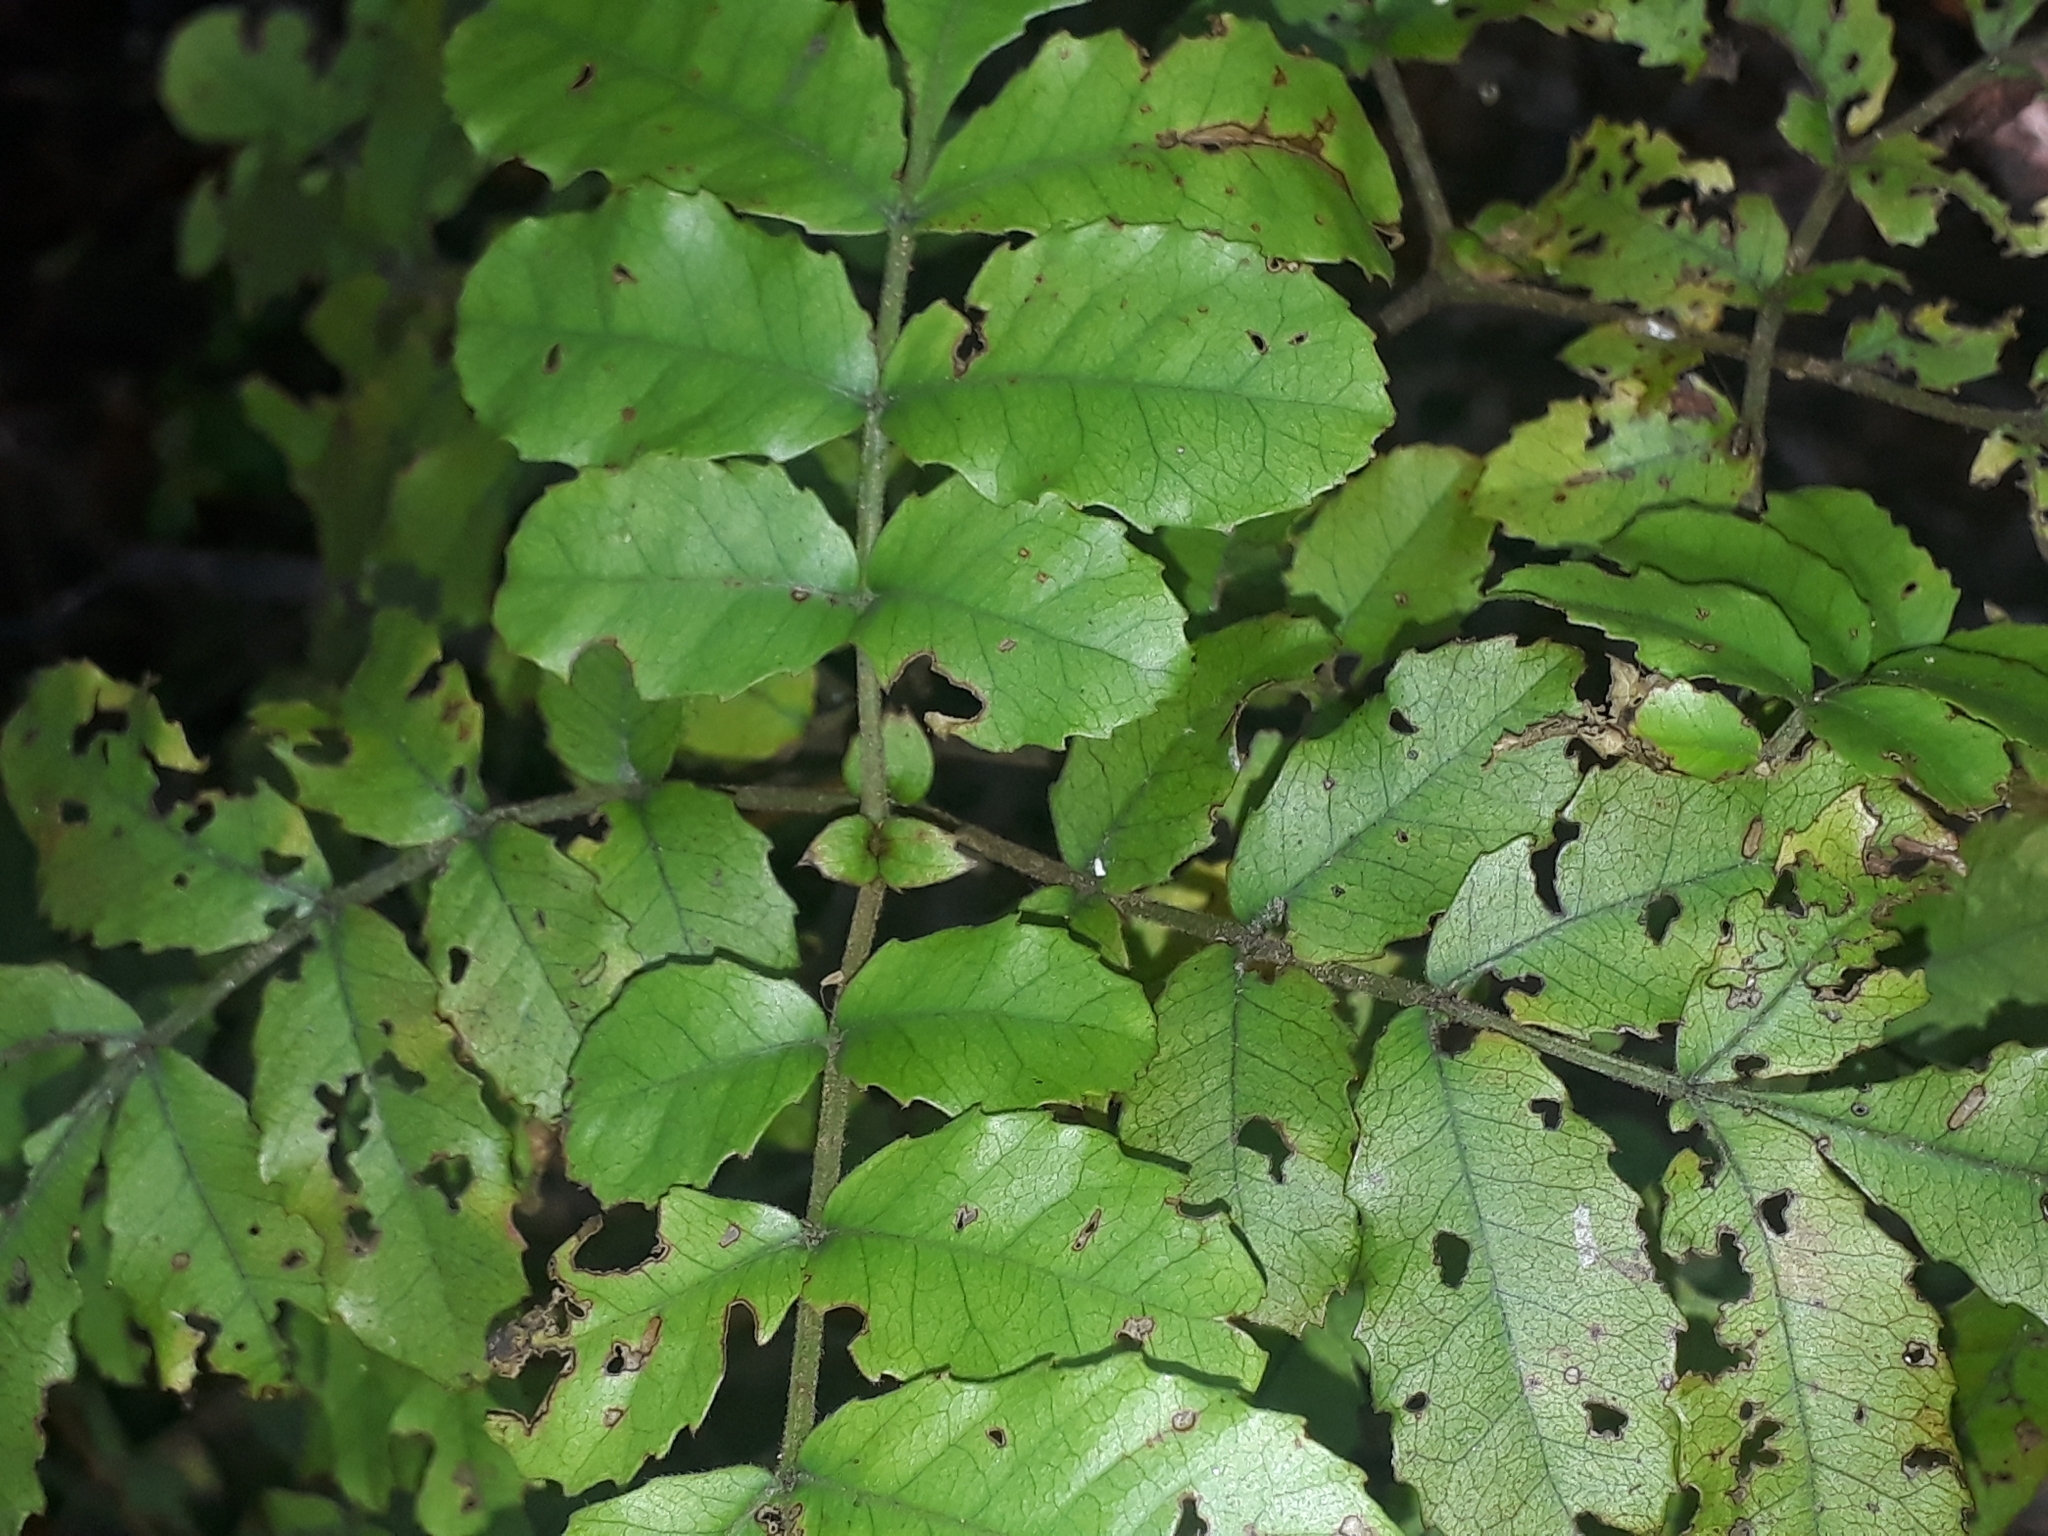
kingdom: Plantae
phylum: Tracheophyta
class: Magnoliopsida
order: Oxalidales
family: Cunoniaceae
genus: Pterophylla
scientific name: Pterophylla sylvicola
